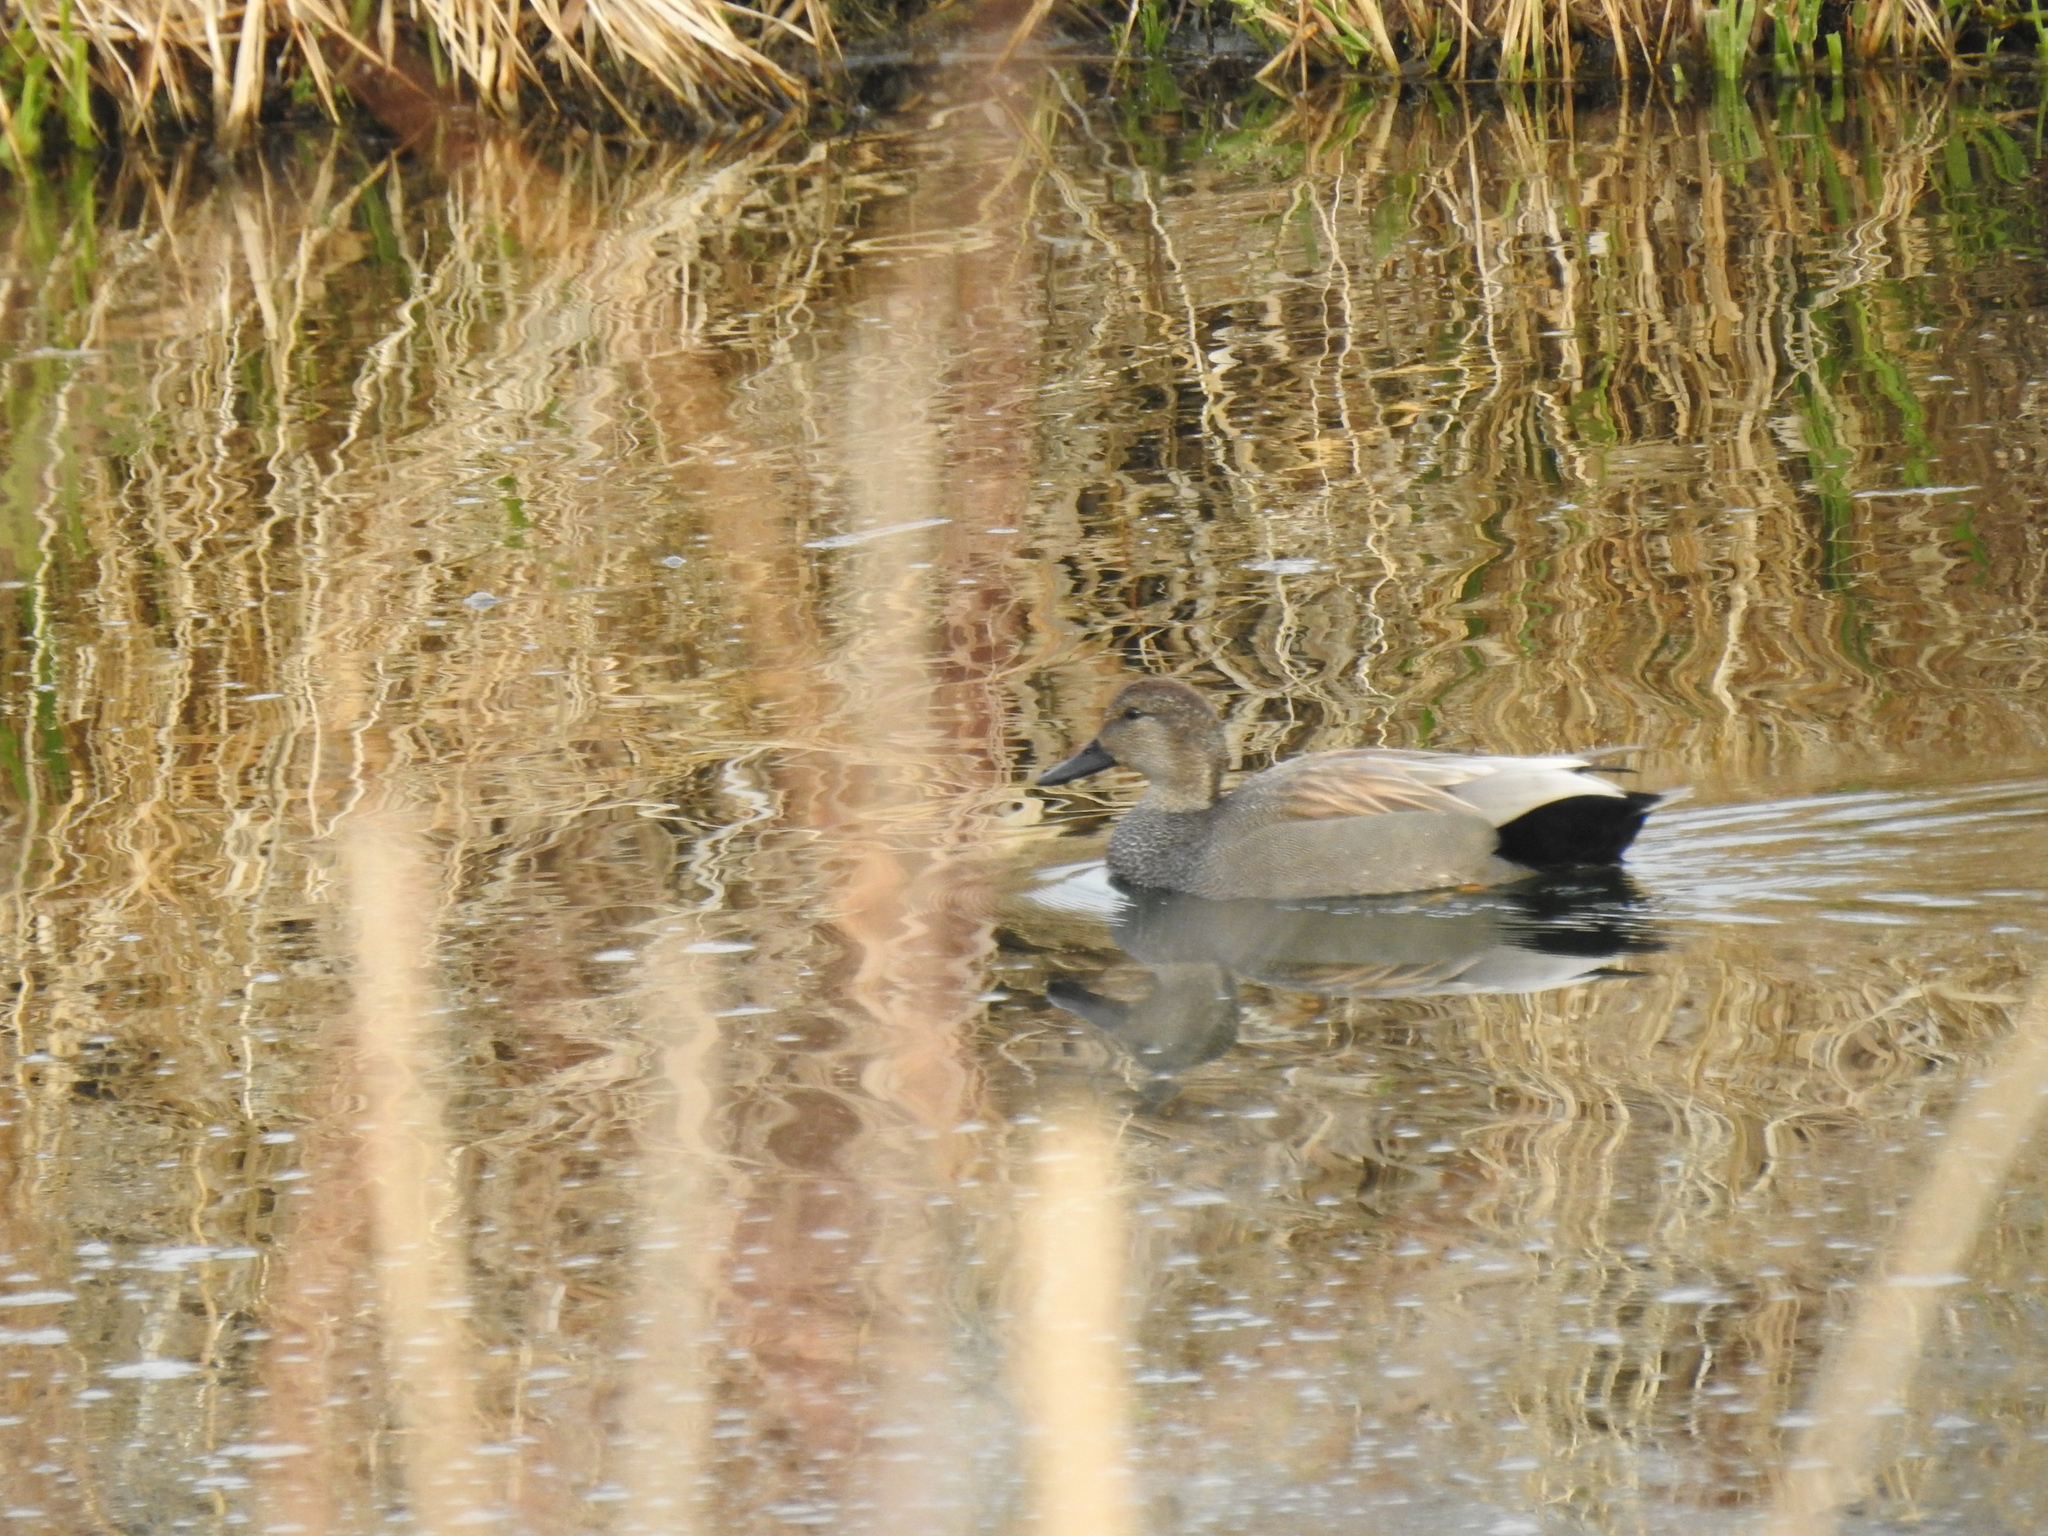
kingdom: Animalia
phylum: Chordata
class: Aves
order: Anseriformes
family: Anatidae
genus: Mareca
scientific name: Mareca strepera
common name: Gadwall
